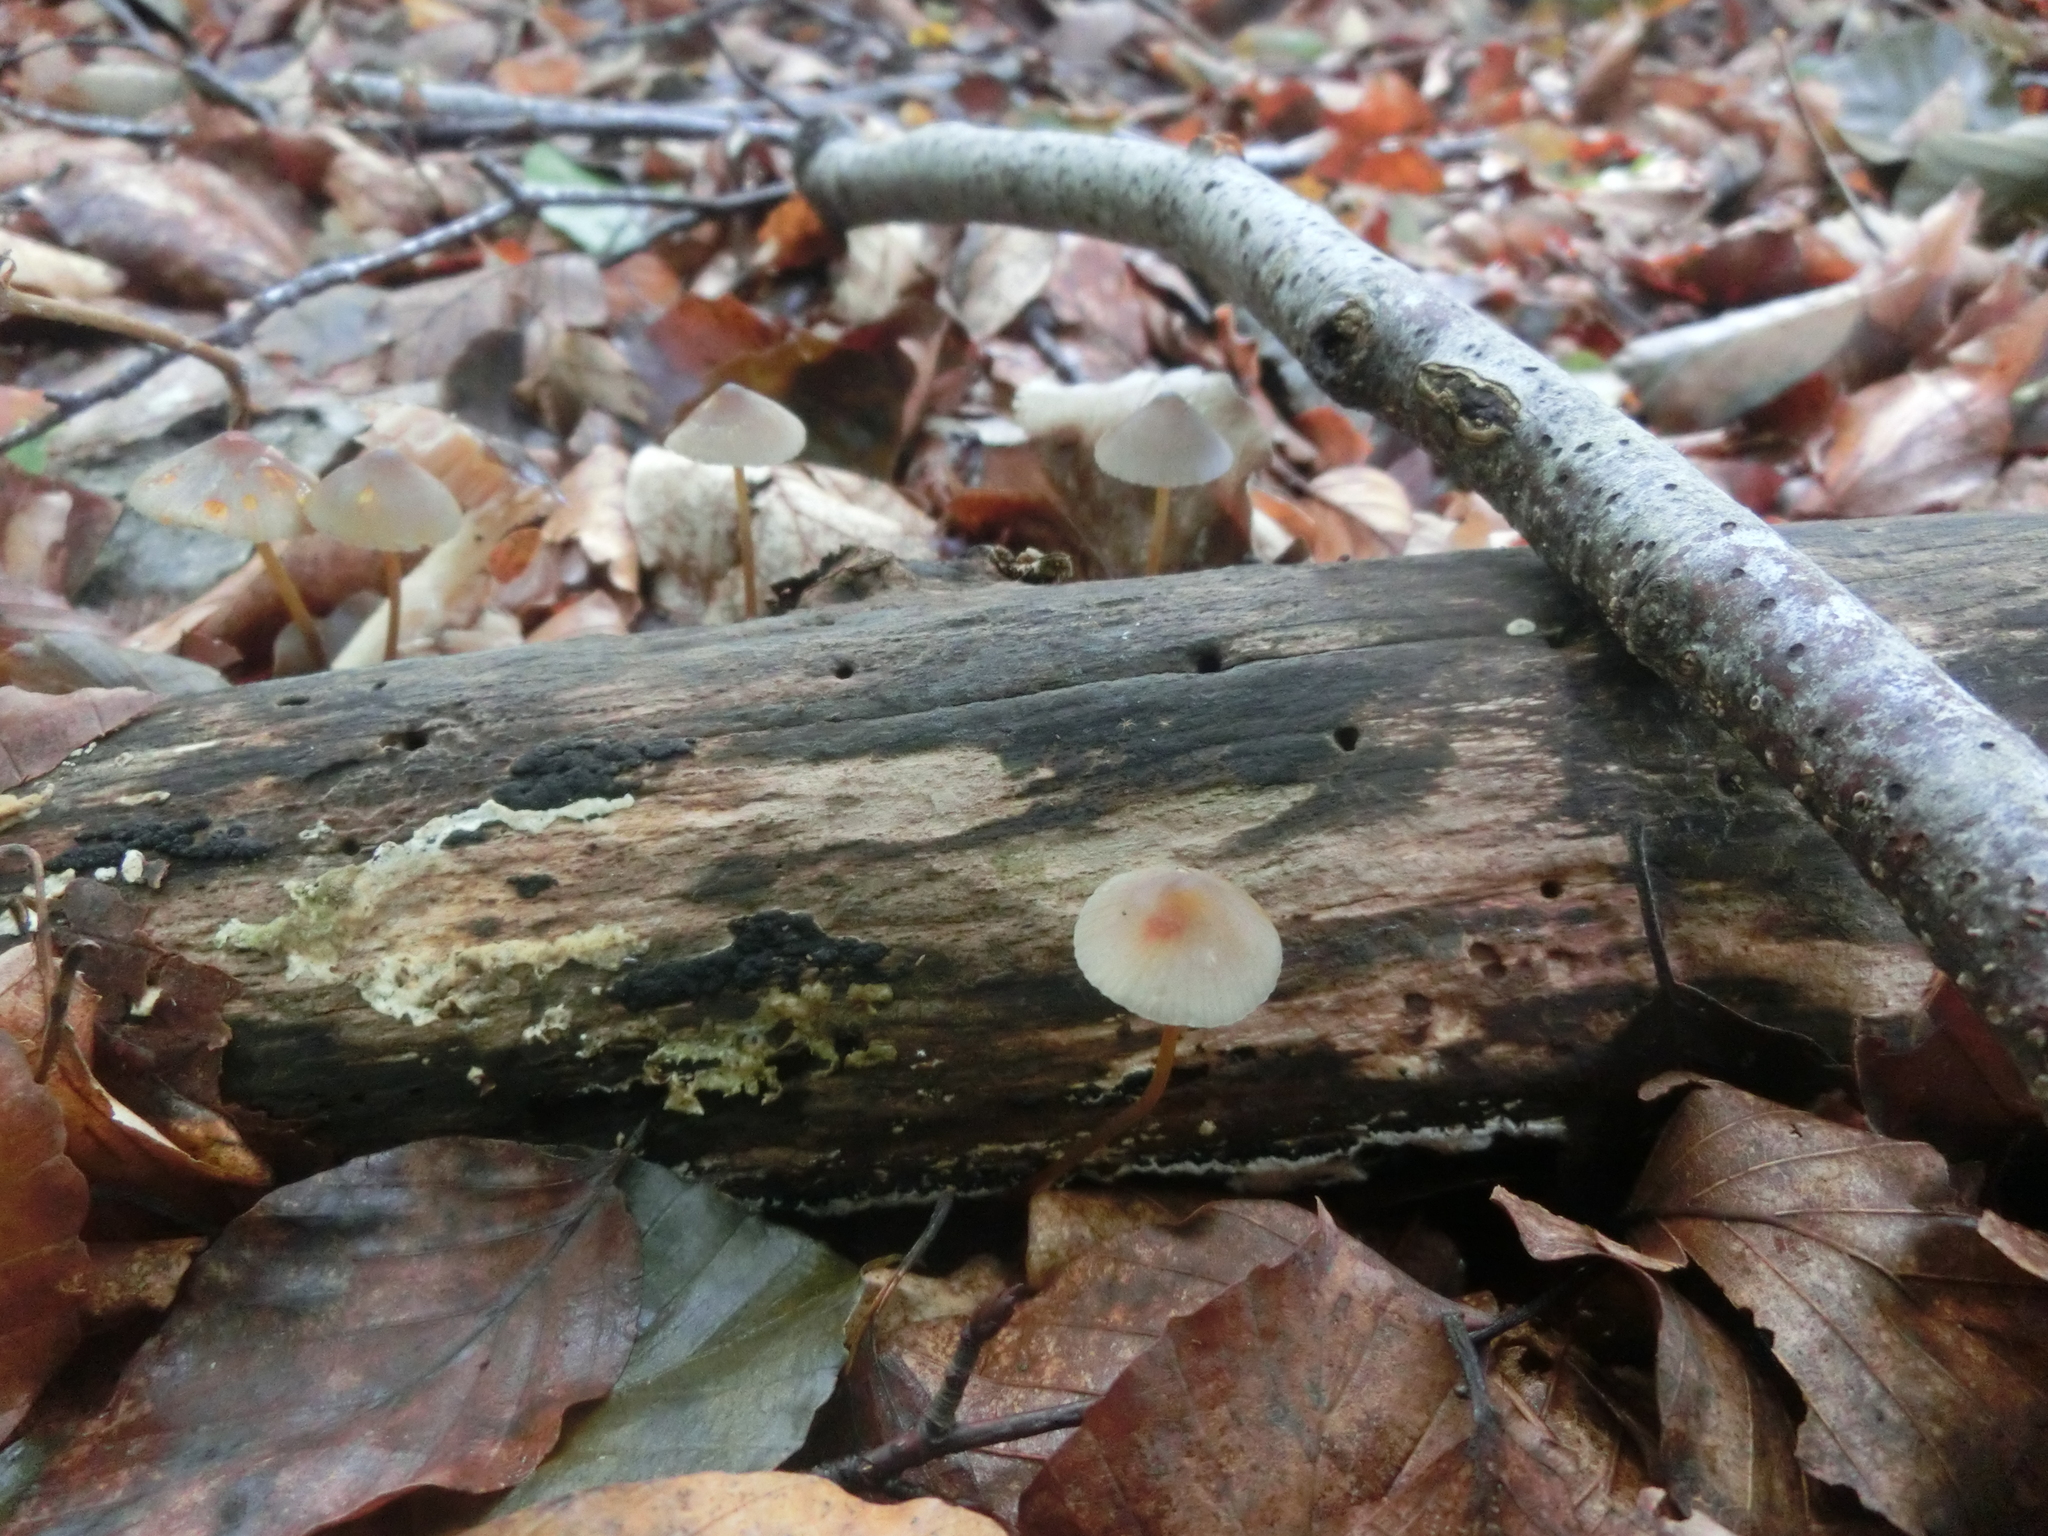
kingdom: Fungi
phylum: Basidiomycota
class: Agaricomycetes
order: Agaricales
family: Mycenaceae
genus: Mycena
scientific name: Mycena crocata
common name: Saffrondrop bonnet
